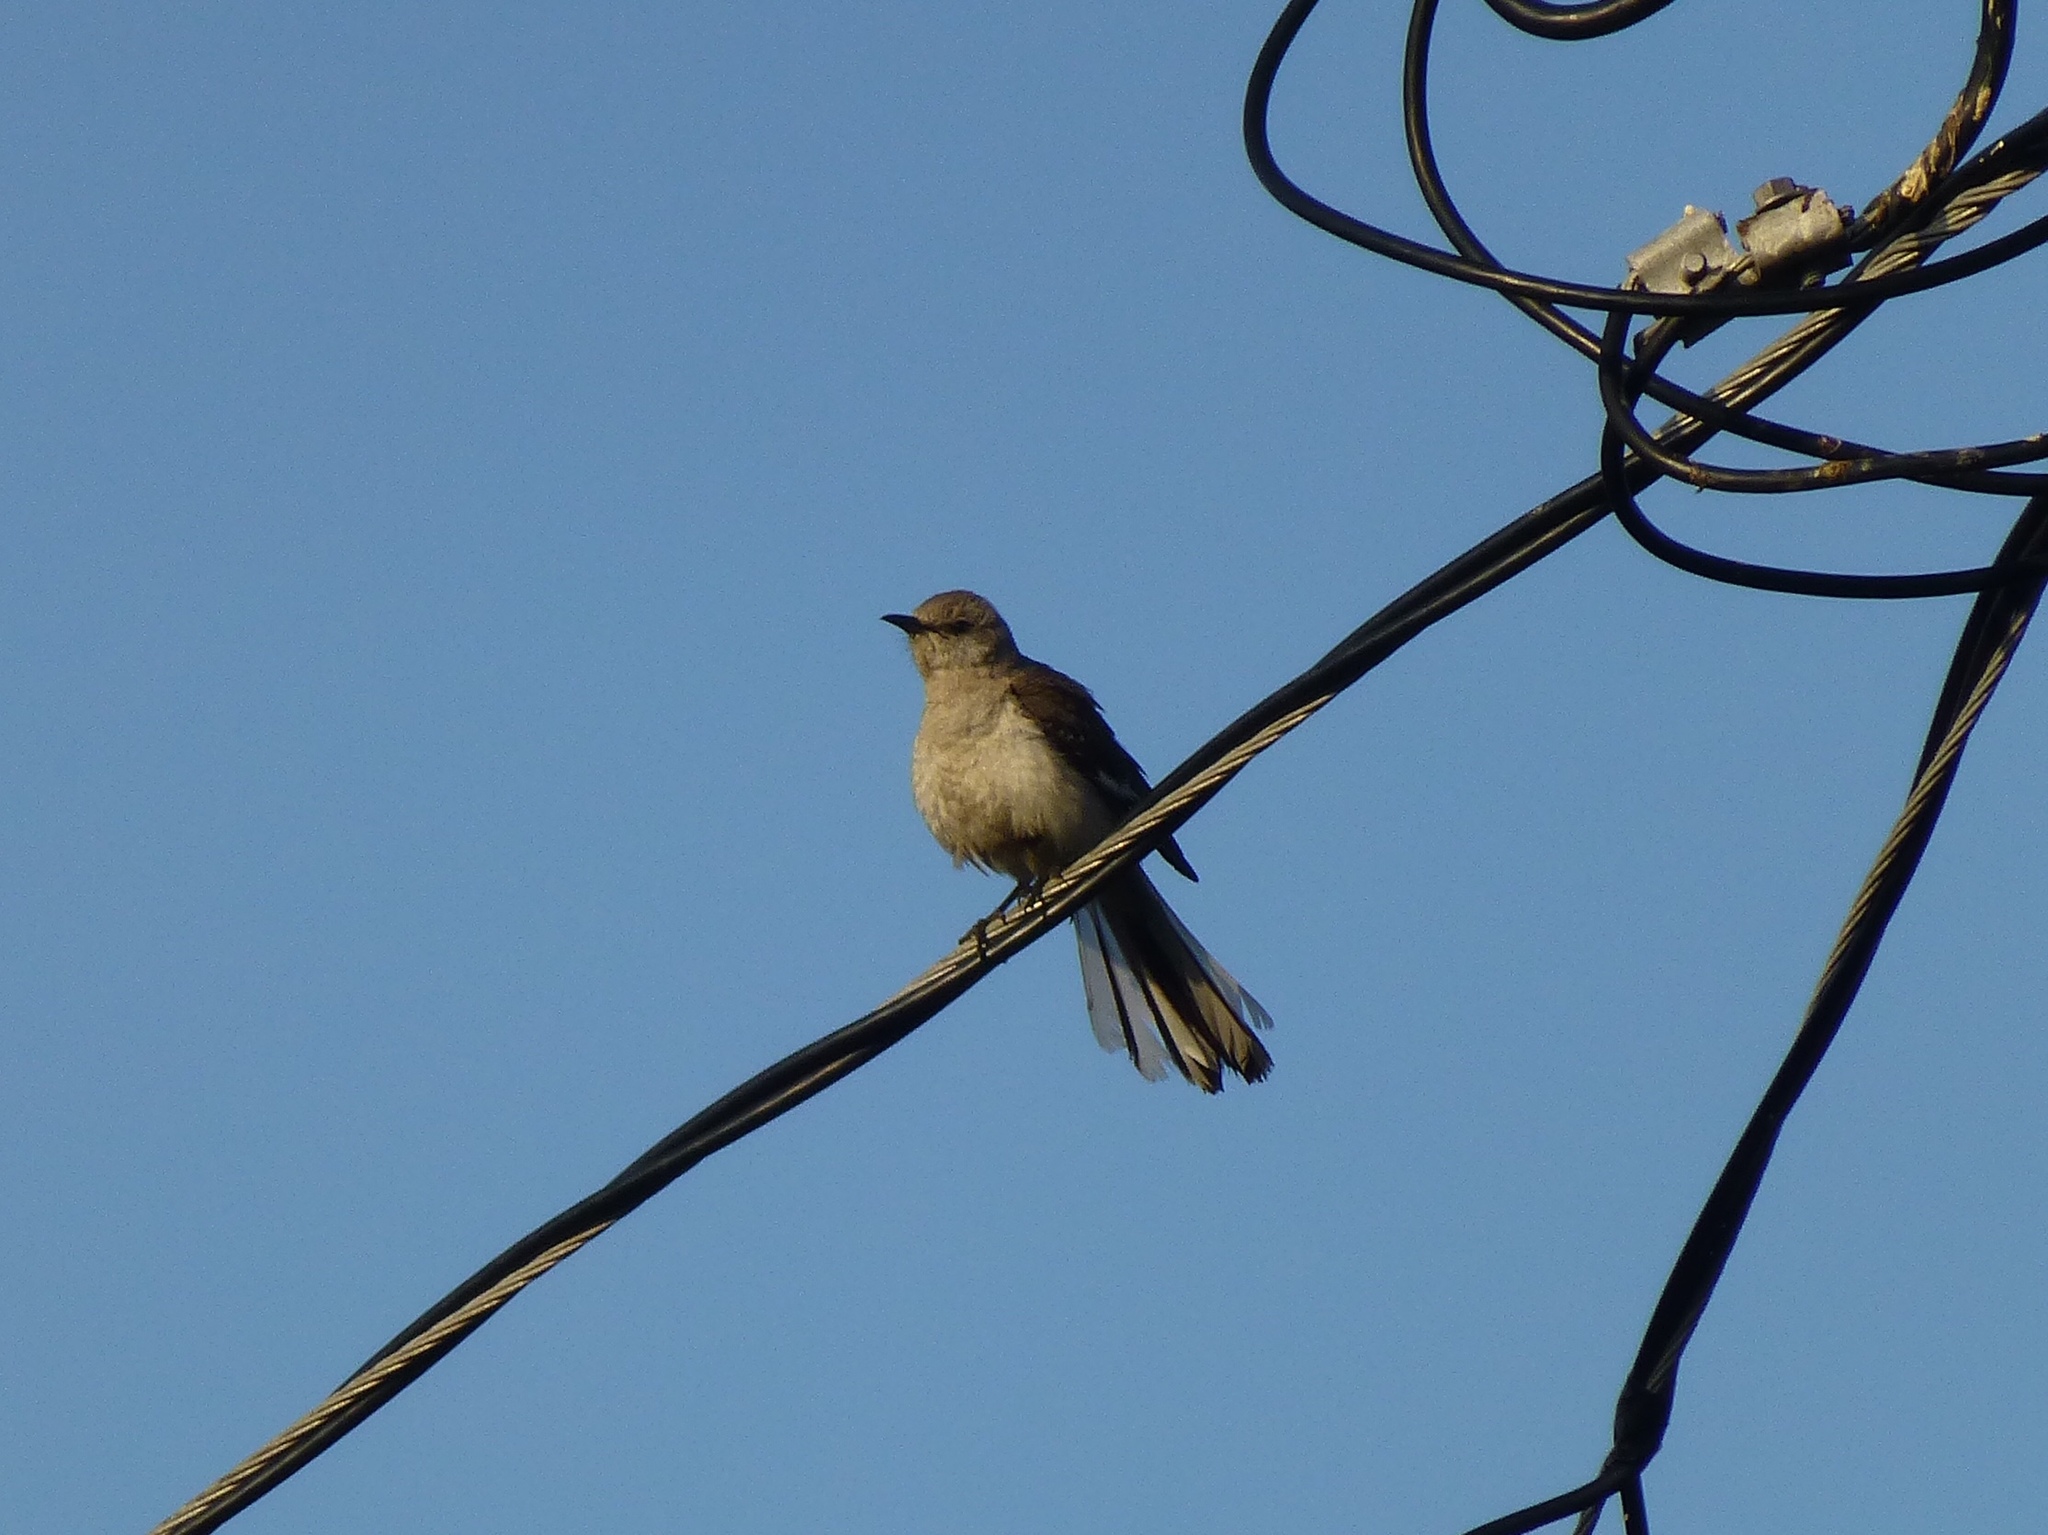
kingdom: Animalia
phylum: Chordata
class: Aves
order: Passeriformes
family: Mimidae
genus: Mimus
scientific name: Mimus polyglottos
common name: Northern mockingbird
